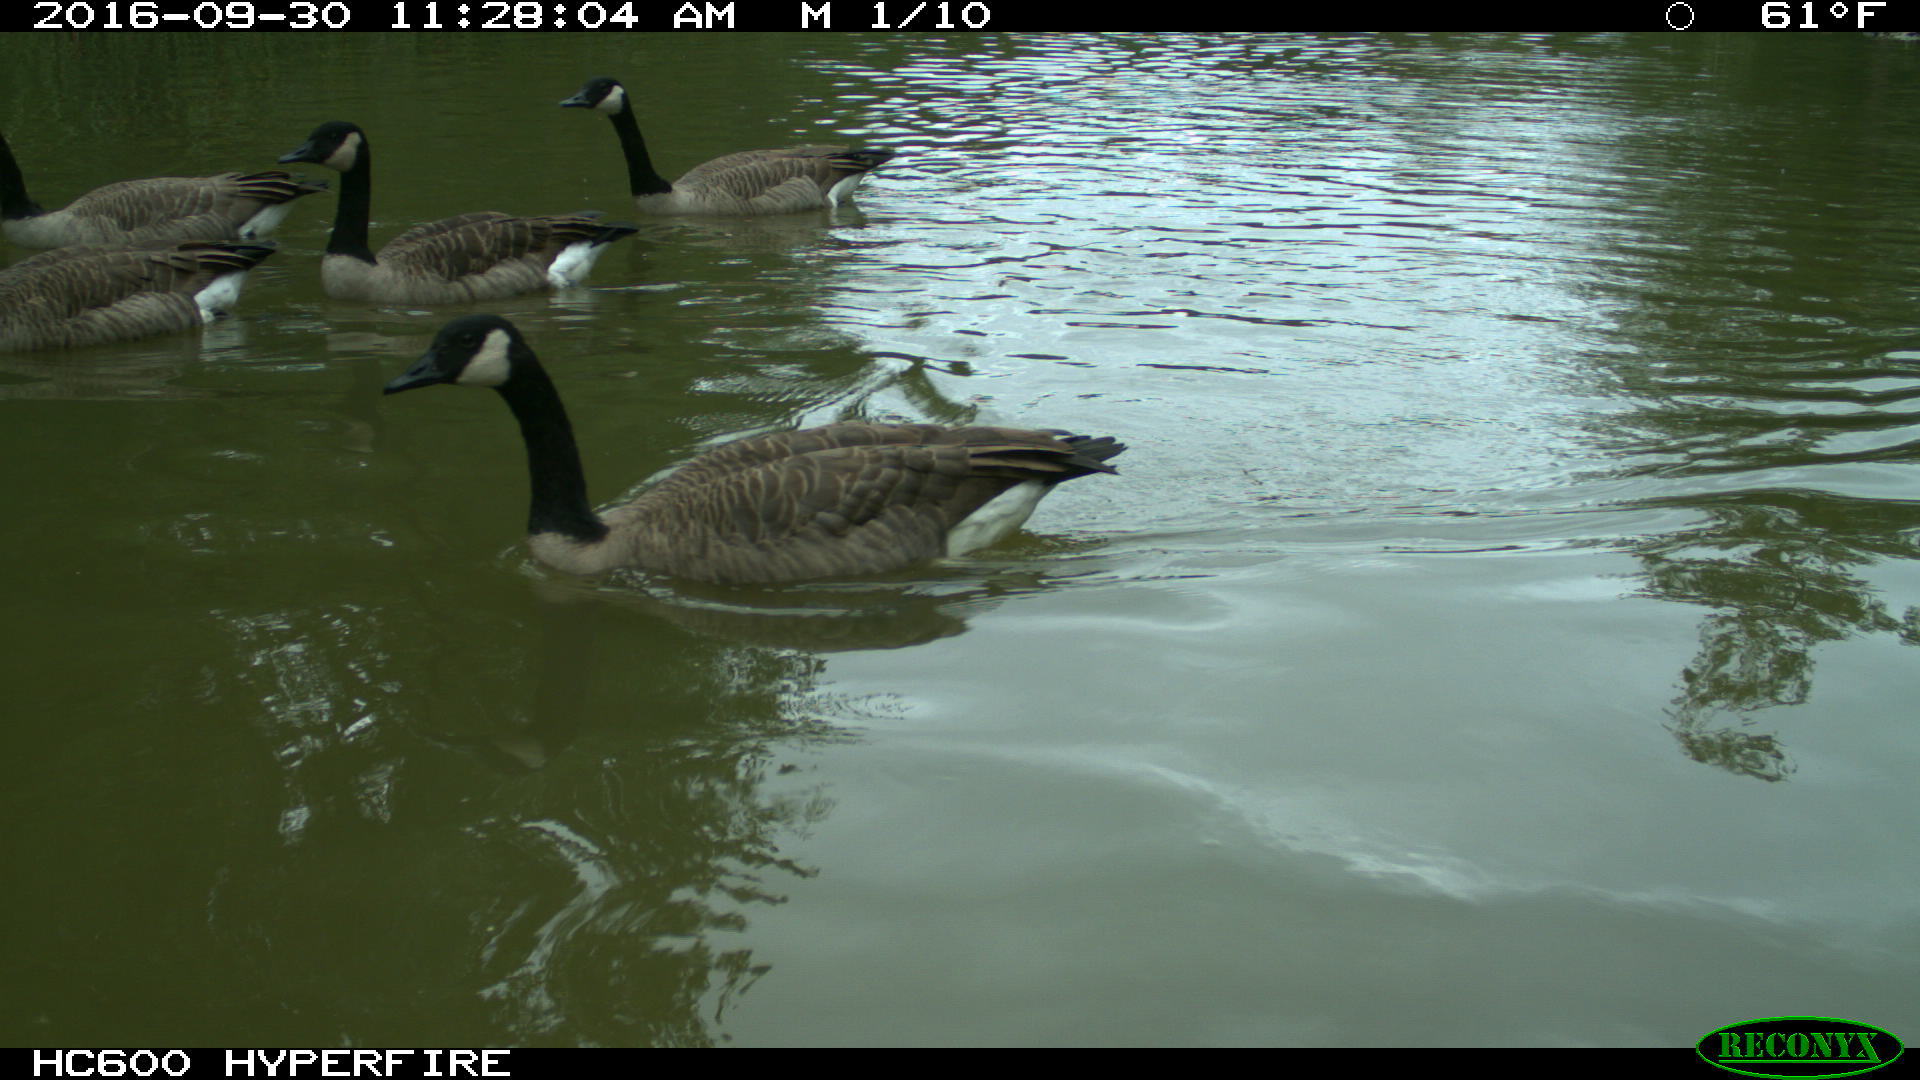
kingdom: Animalia
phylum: Chordata
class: Aves
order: Anseriformes
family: Anatidae
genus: Branta
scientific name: Branta canadensis
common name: Canada goose
